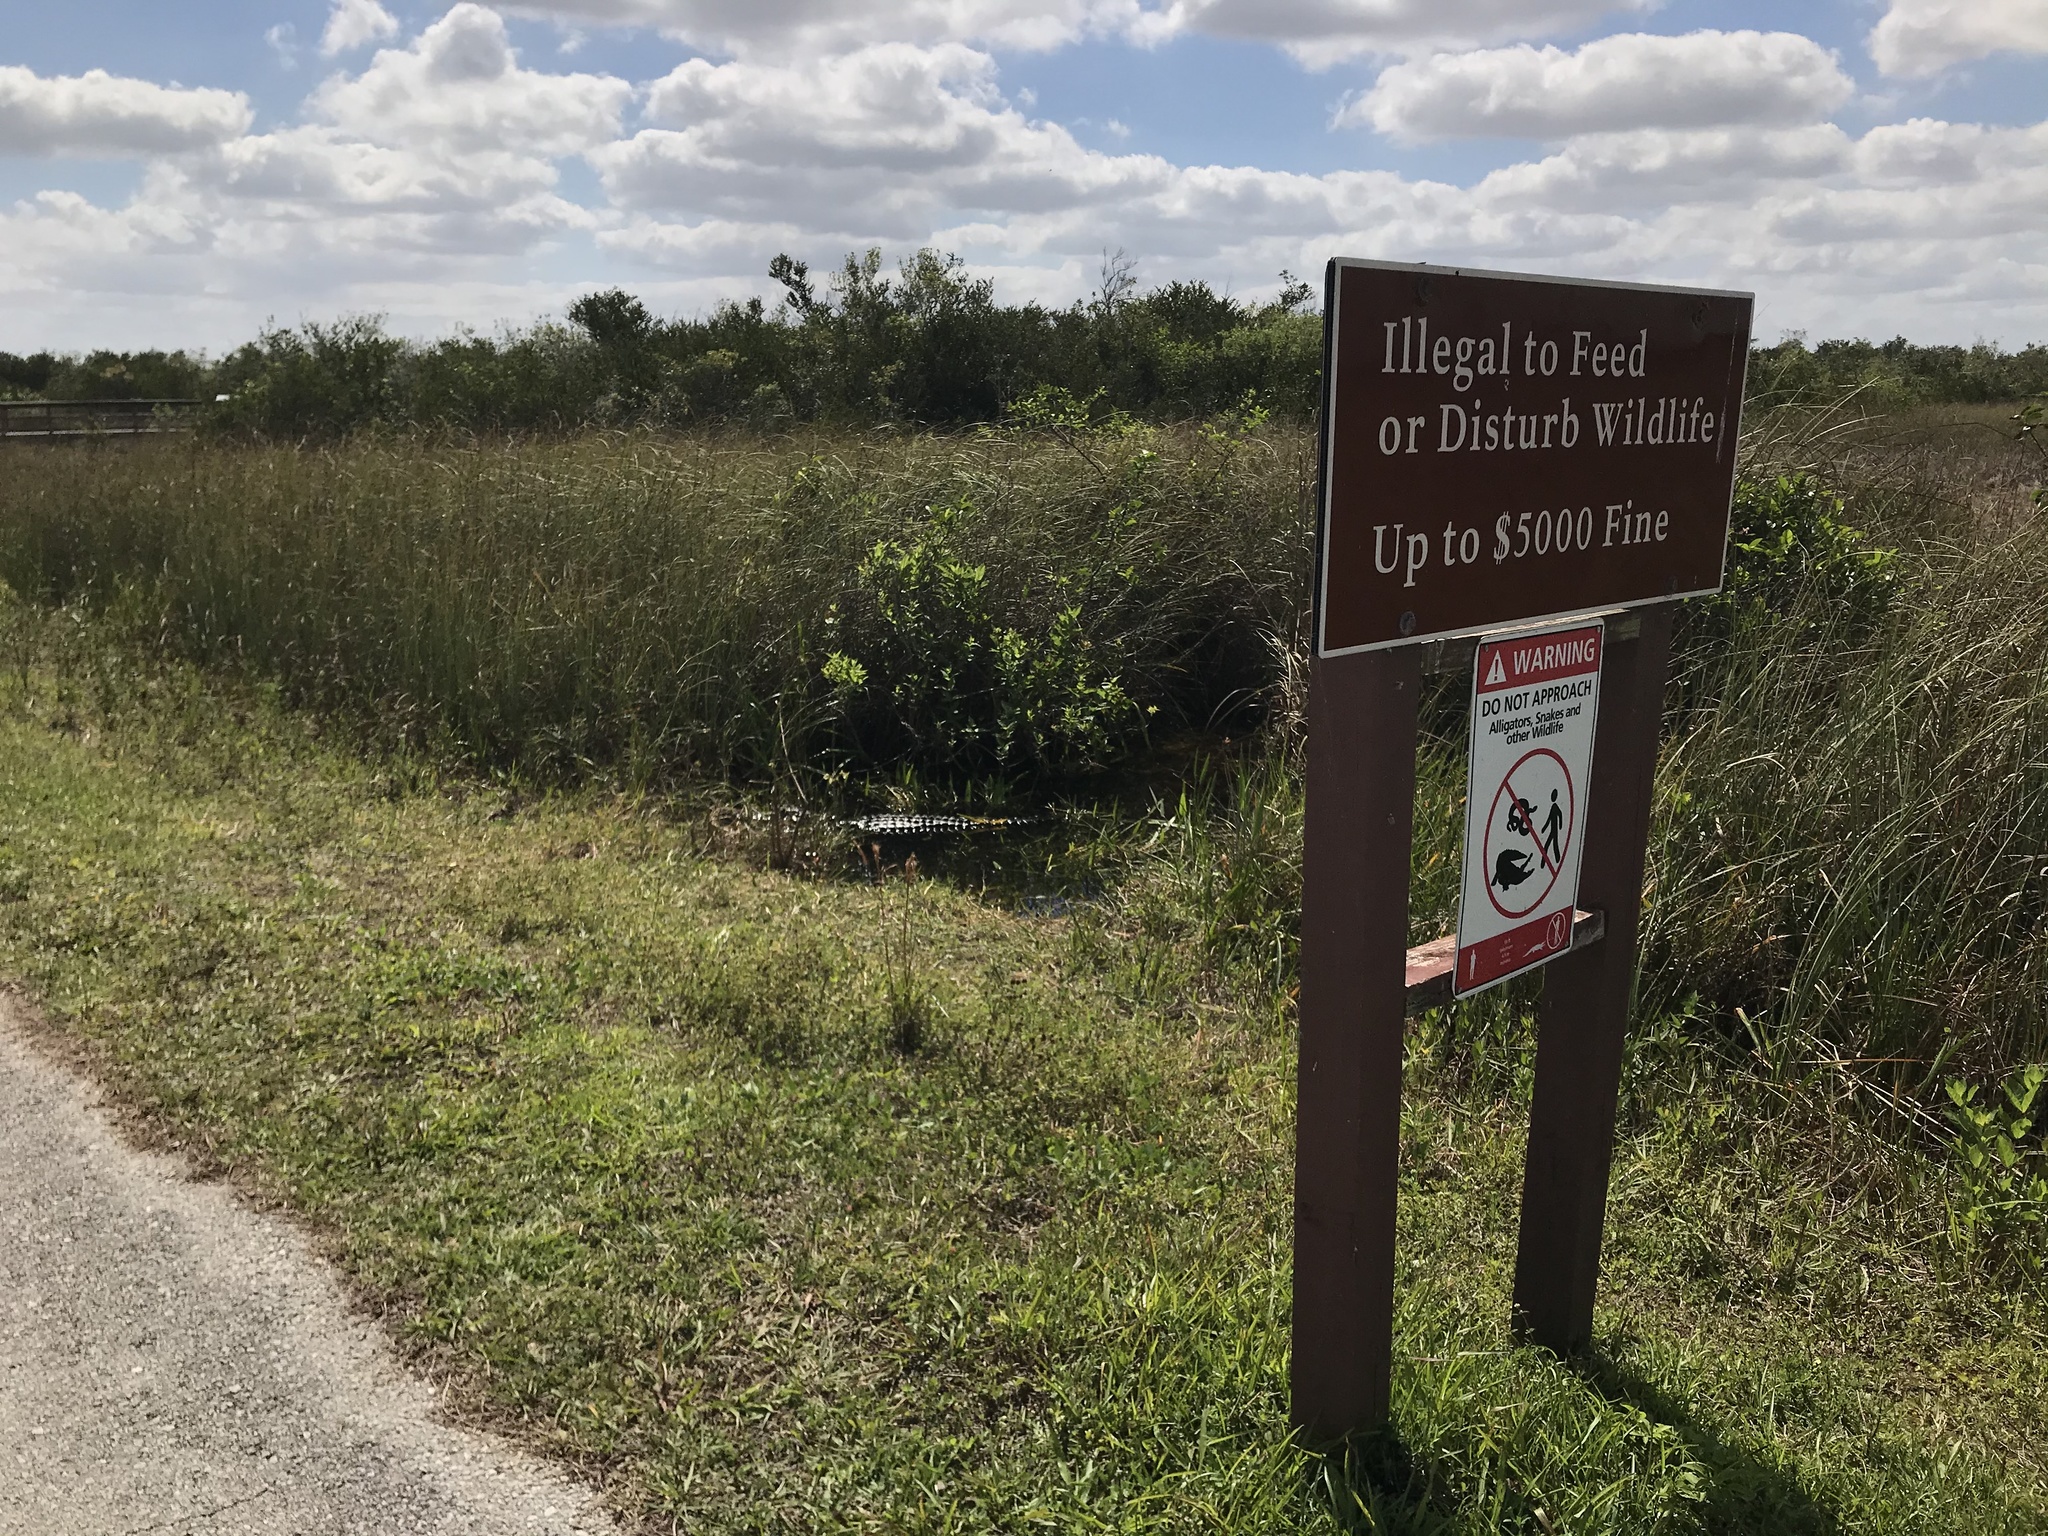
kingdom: Animalia
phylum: Chordata
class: Crocodylia
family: Alligatoridae
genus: Alligator
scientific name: Alligator mississippiensis
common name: American alligator
